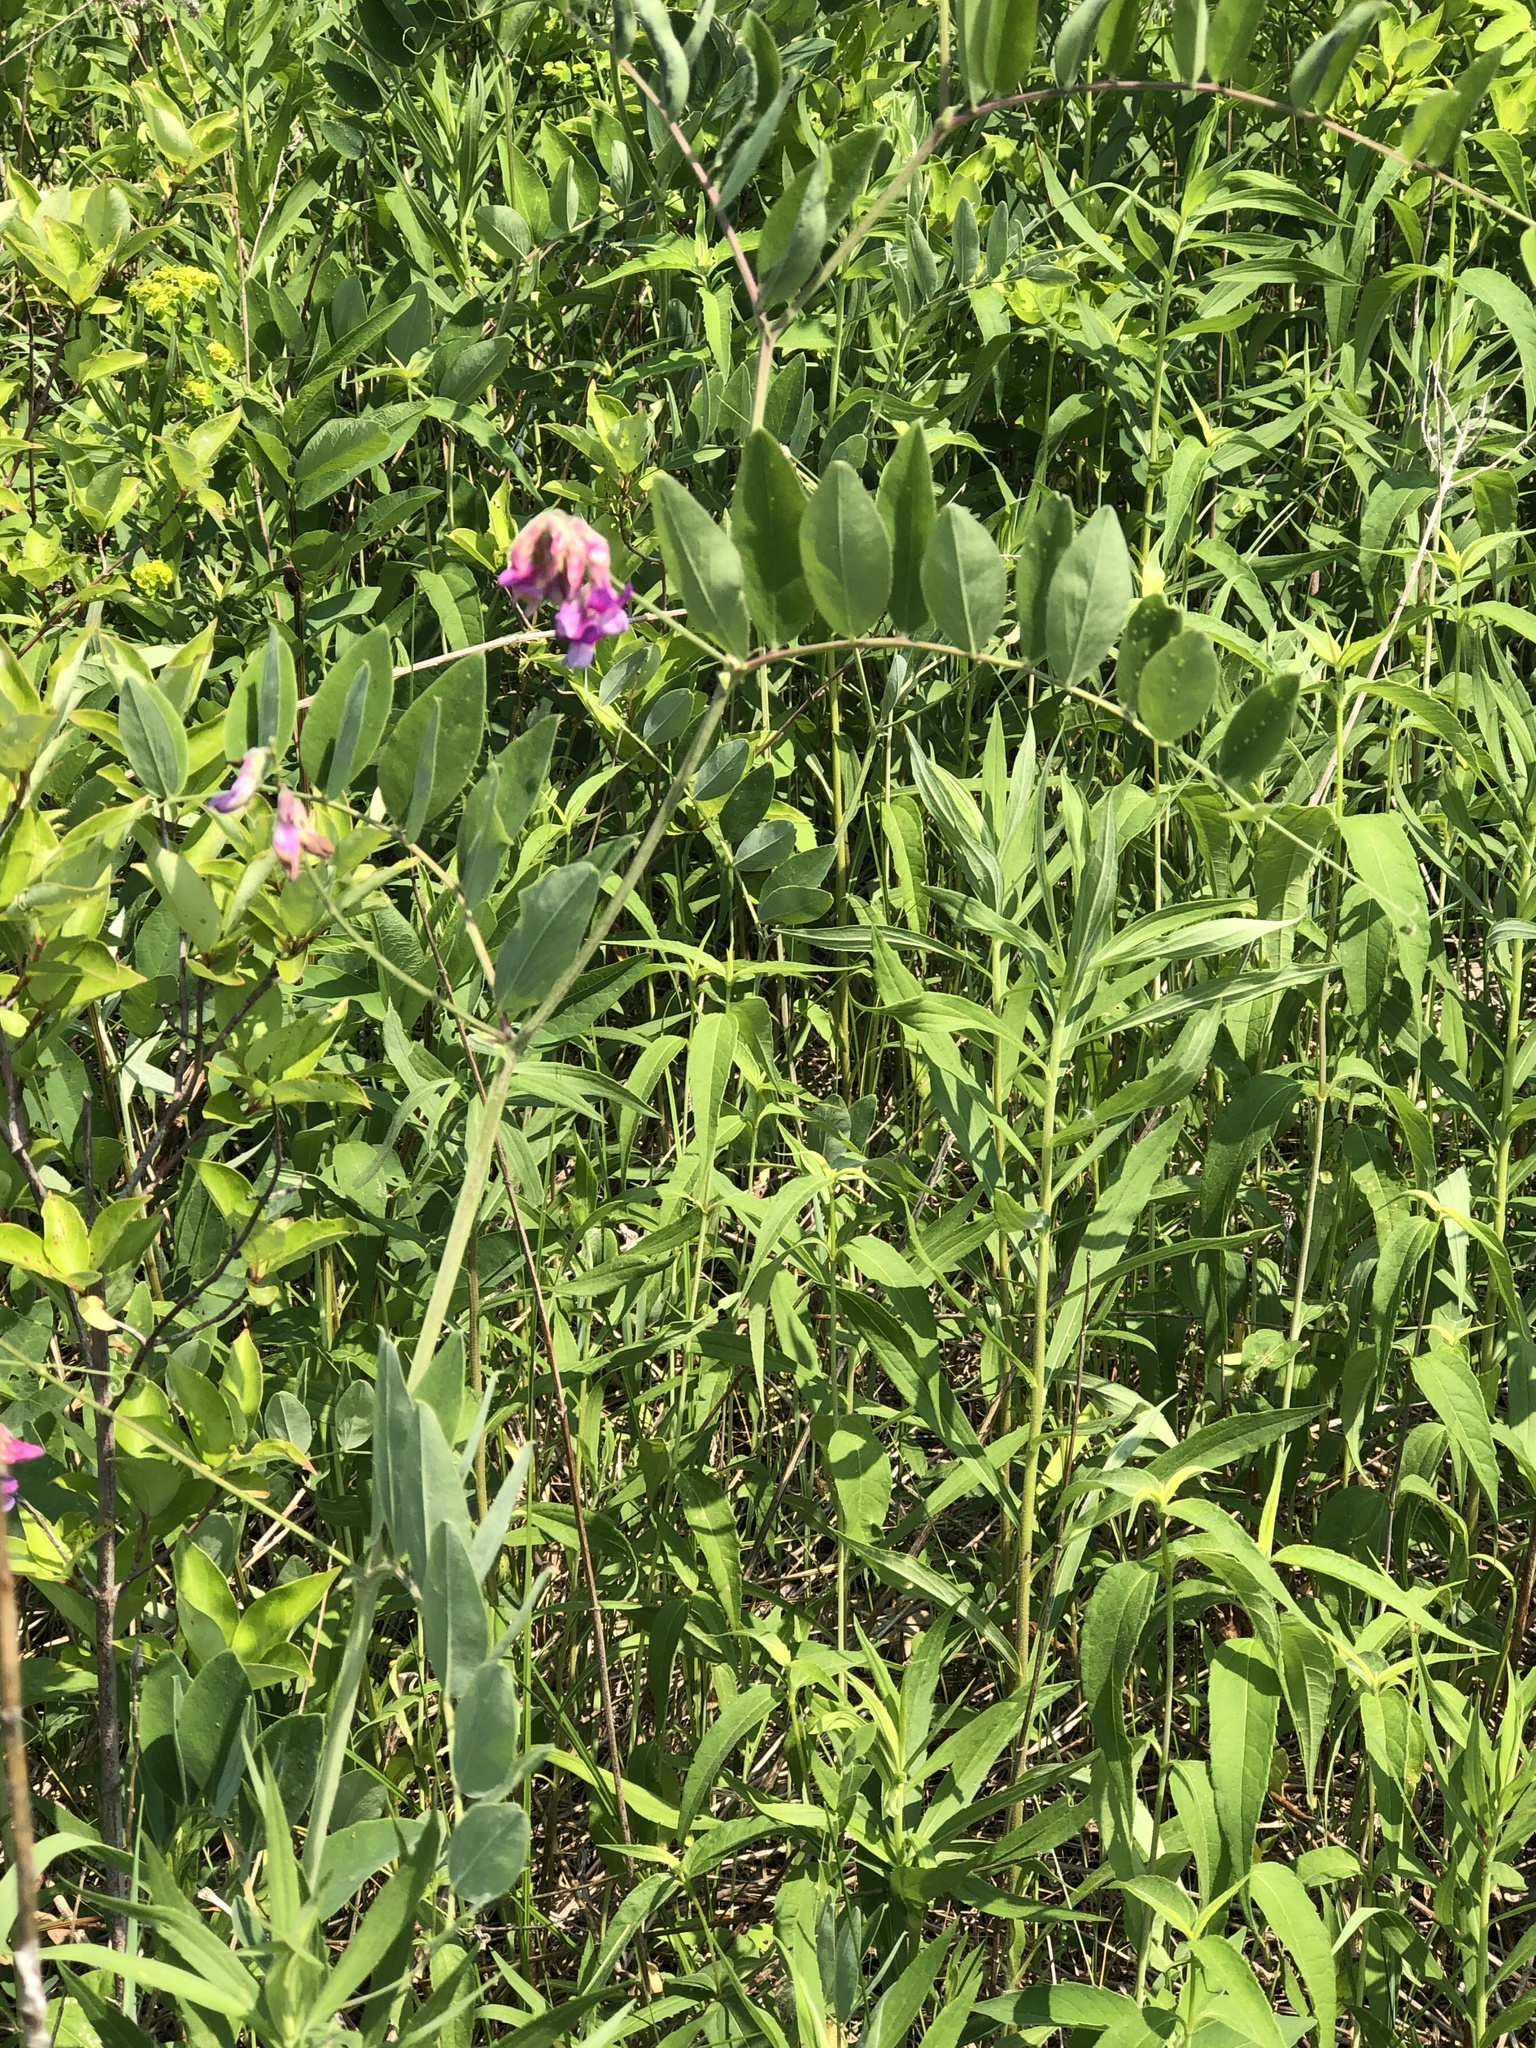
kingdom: Plantae
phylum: Tracheophyta
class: Magnoliopsida
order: Fabales
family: Fabaceae
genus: Lathyrus
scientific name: Lathyrus venosus
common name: Forest-pea
